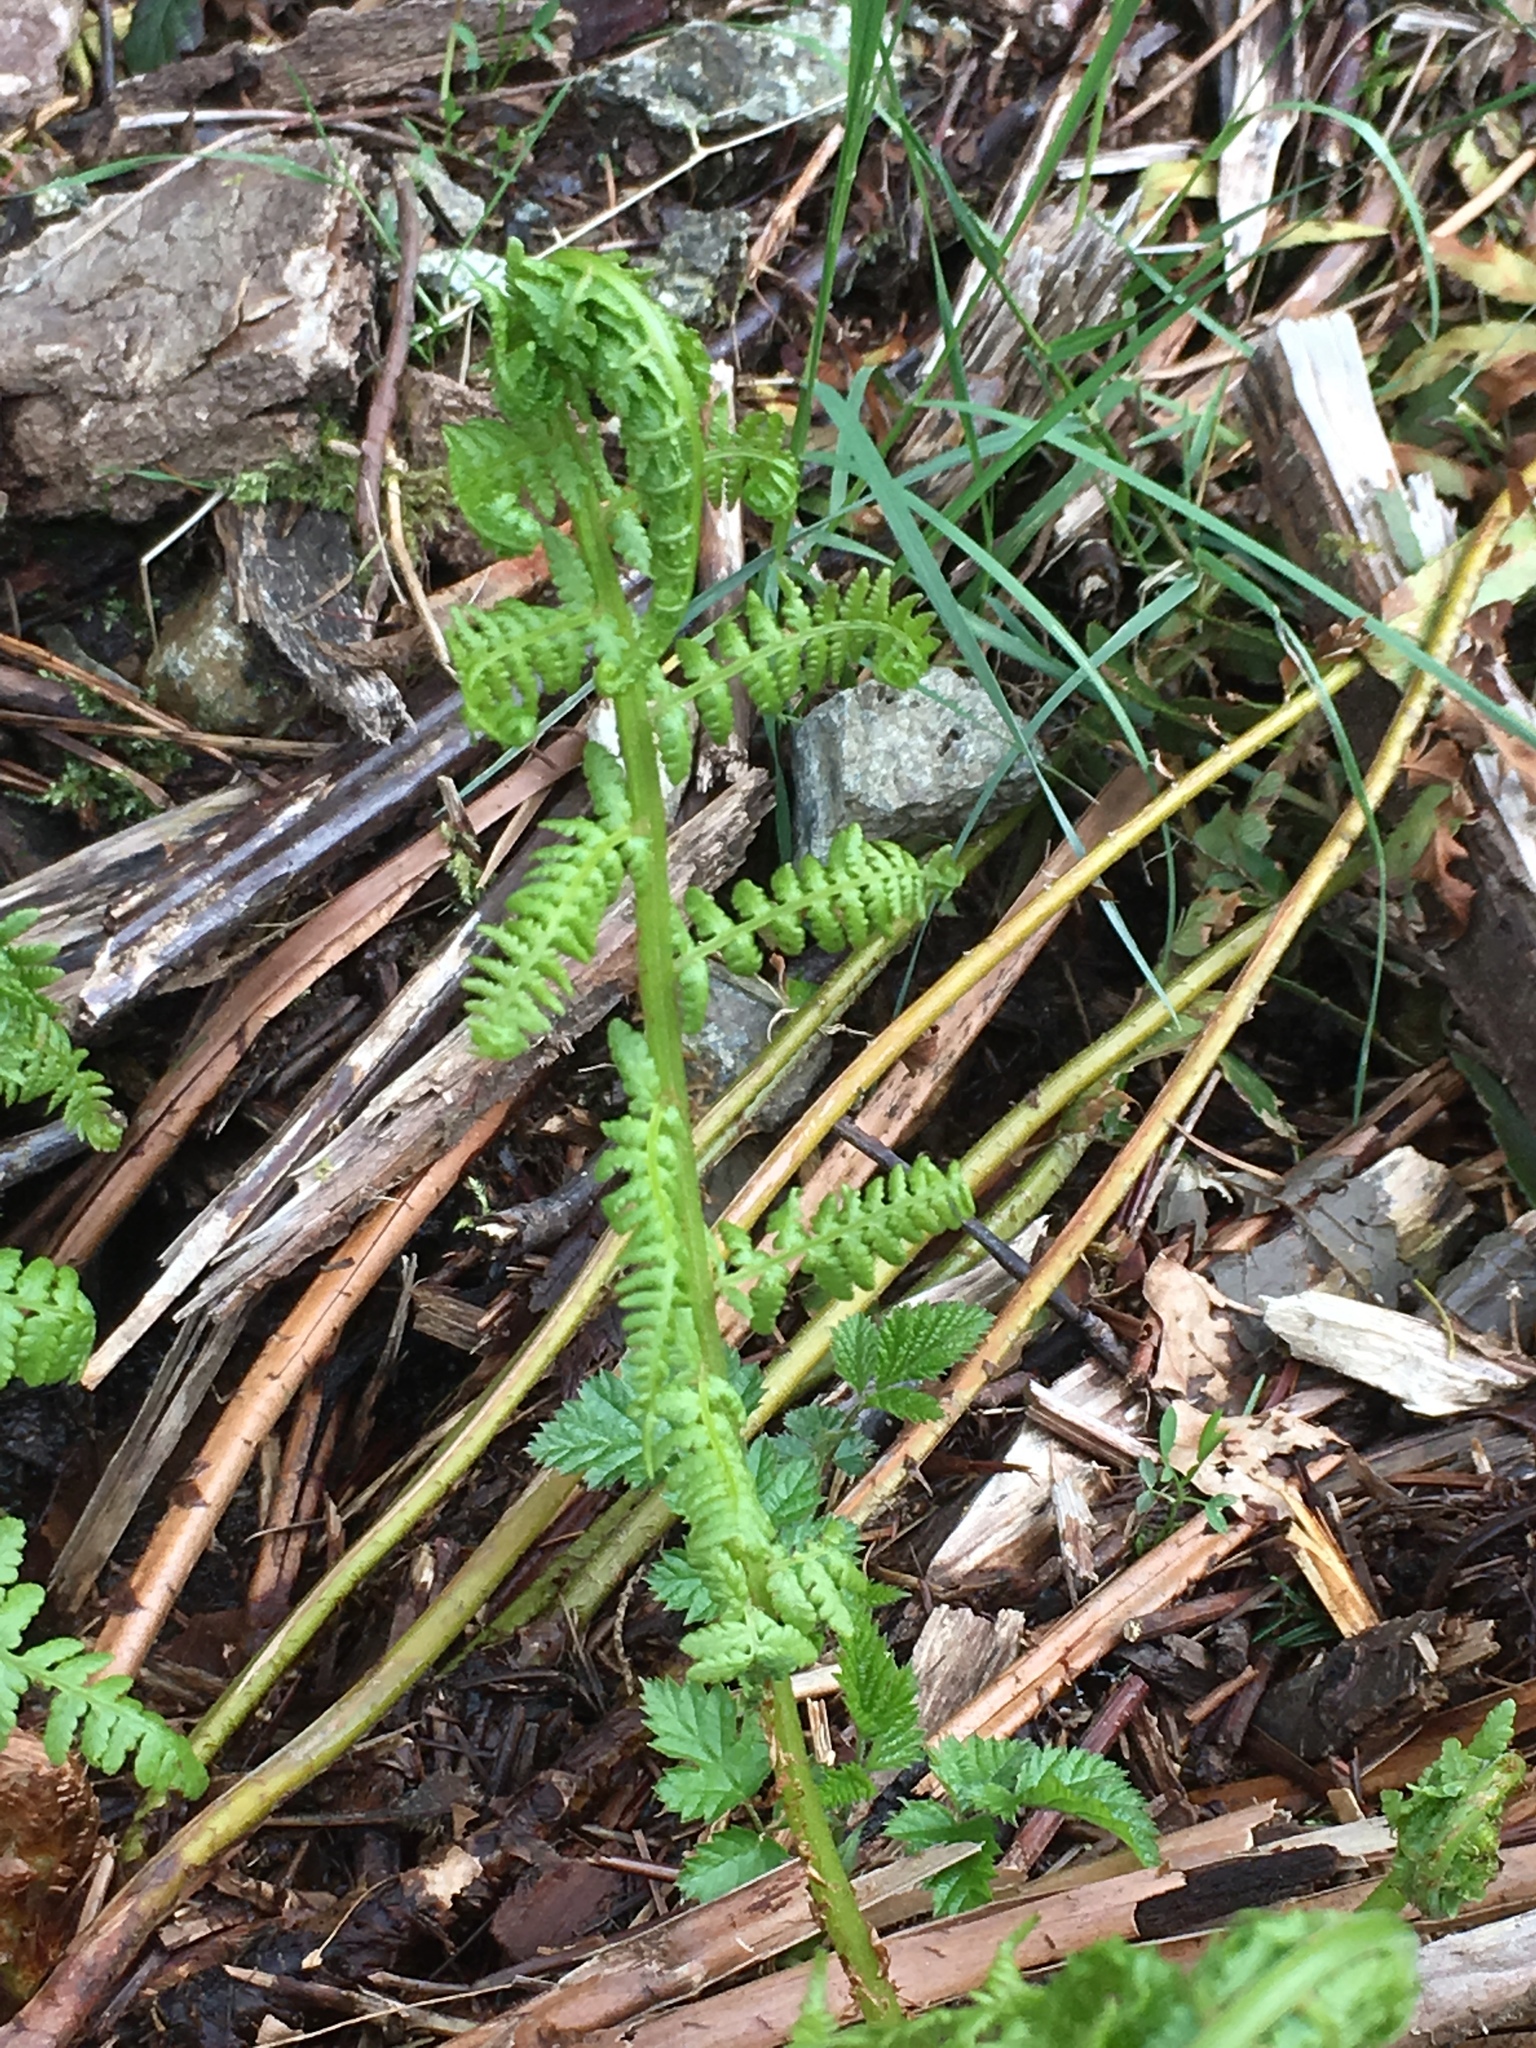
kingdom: Plantae
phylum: Tracheophyta
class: Polypodiopsida
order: Polypodiales
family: Athyriaceae
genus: Athyrium
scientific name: Athyrium filix-femina
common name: Lady fern
